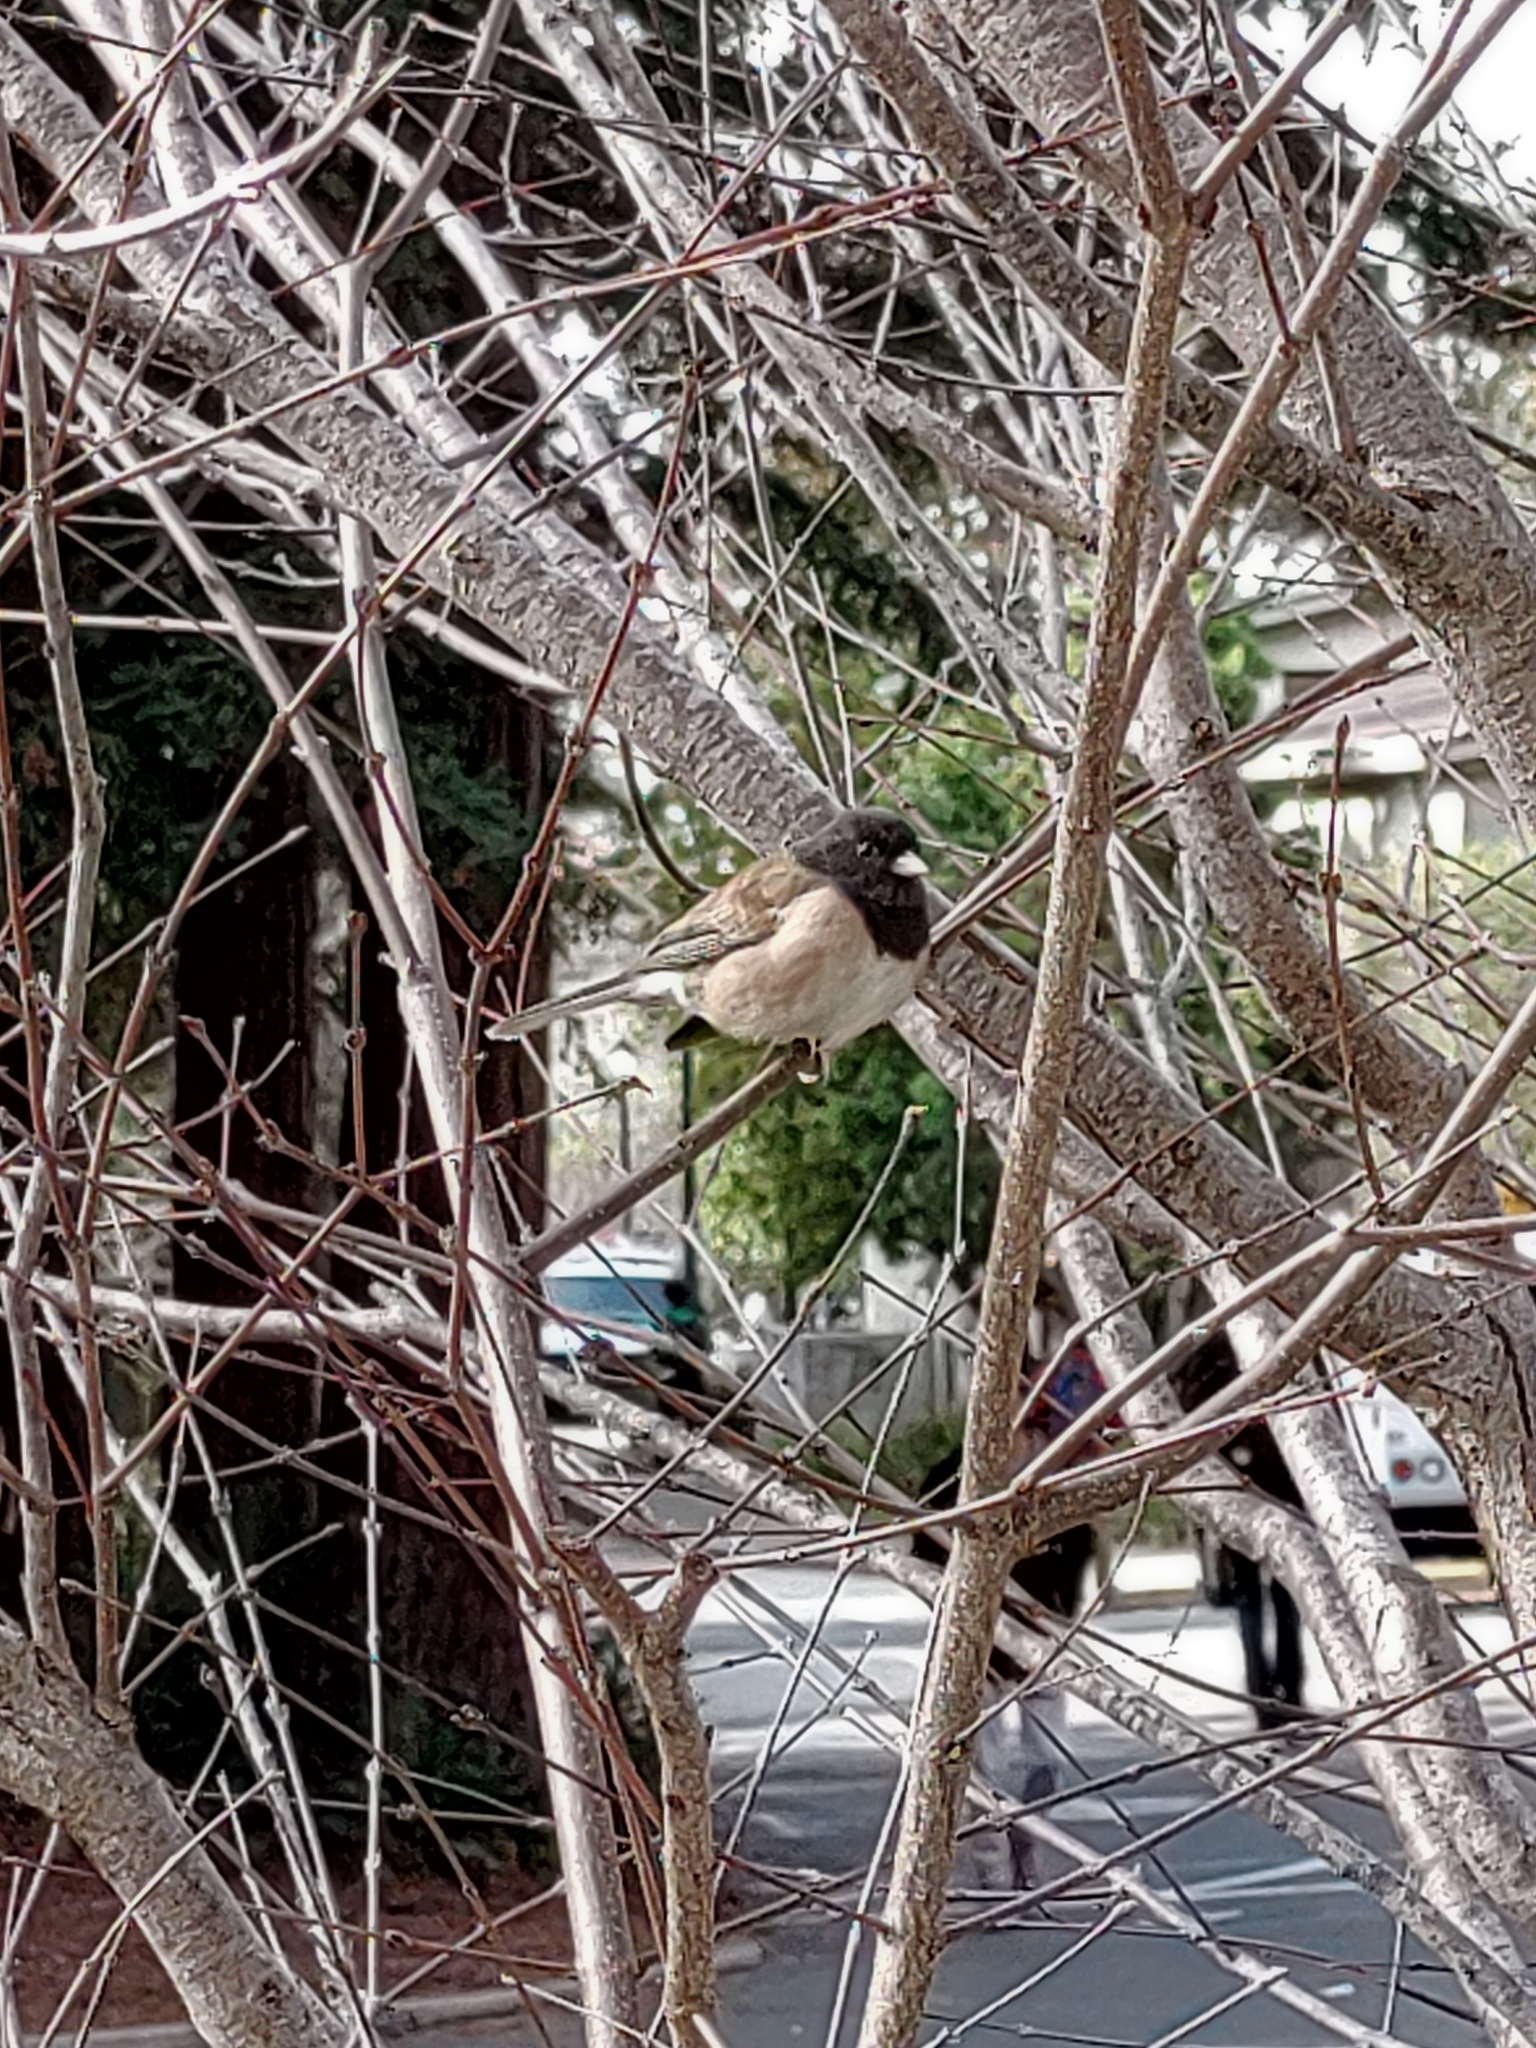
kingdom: Animalia
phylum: Chordata
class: Aves
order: Passeriformes
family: Passerellidae
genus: Junco
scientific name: Junco hyemalis
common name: Dark-eyed junco
